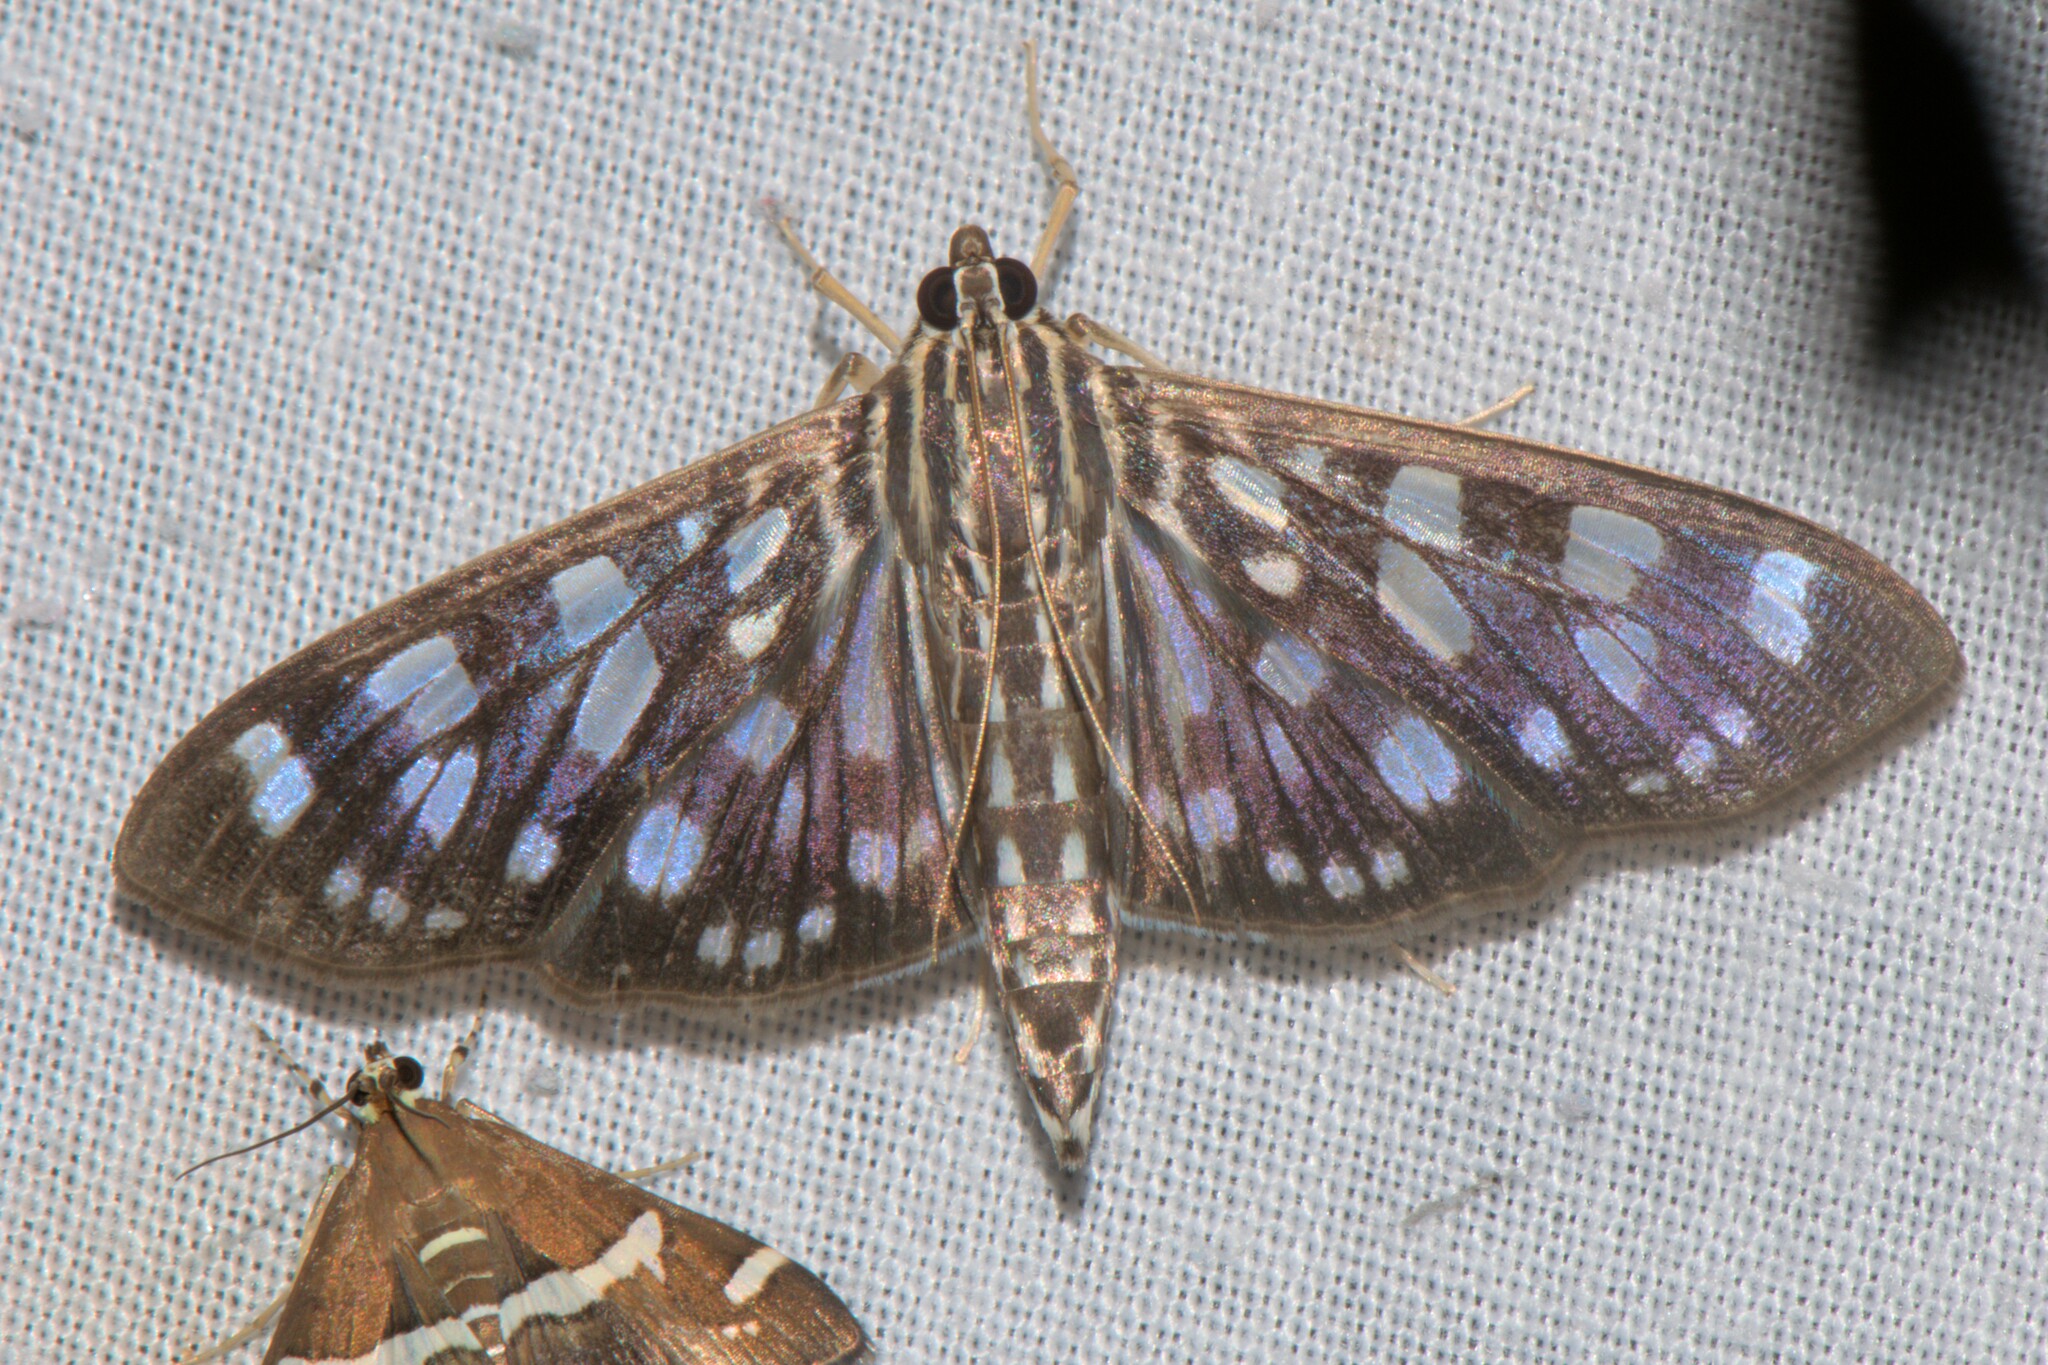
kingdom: Animalia
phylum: Arthropoda
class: Insecta
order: Lepidoptera
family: Crambidae
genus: Pygospila
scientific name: Pygospila tyres
